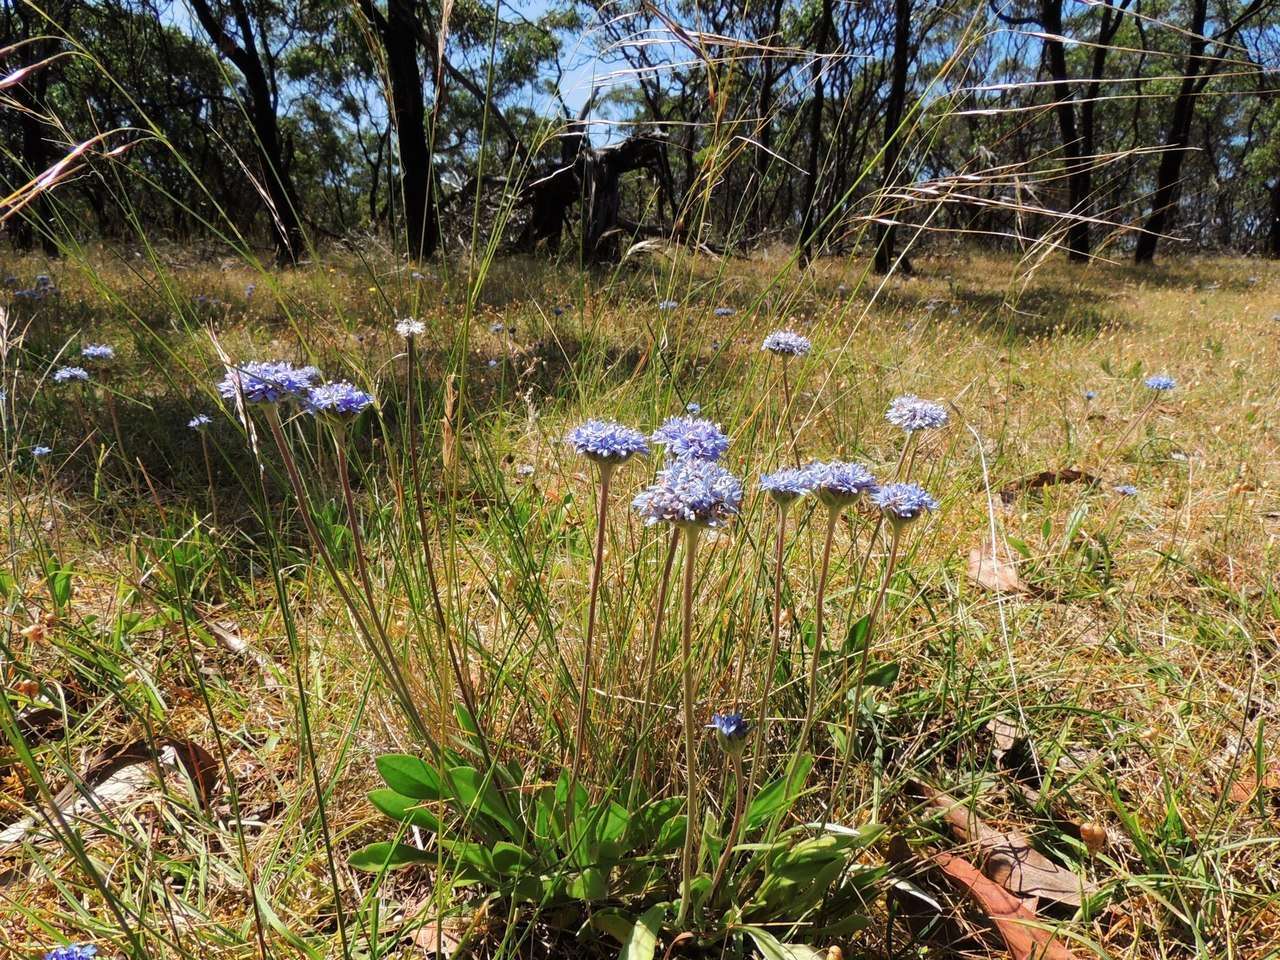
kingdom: Plantae
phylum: Tracheophyta
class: Magnoliopsida
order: Asterales
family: Goodeniaceae
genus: Brunonia
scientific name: Brunonia australis
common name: Blue pincushion
